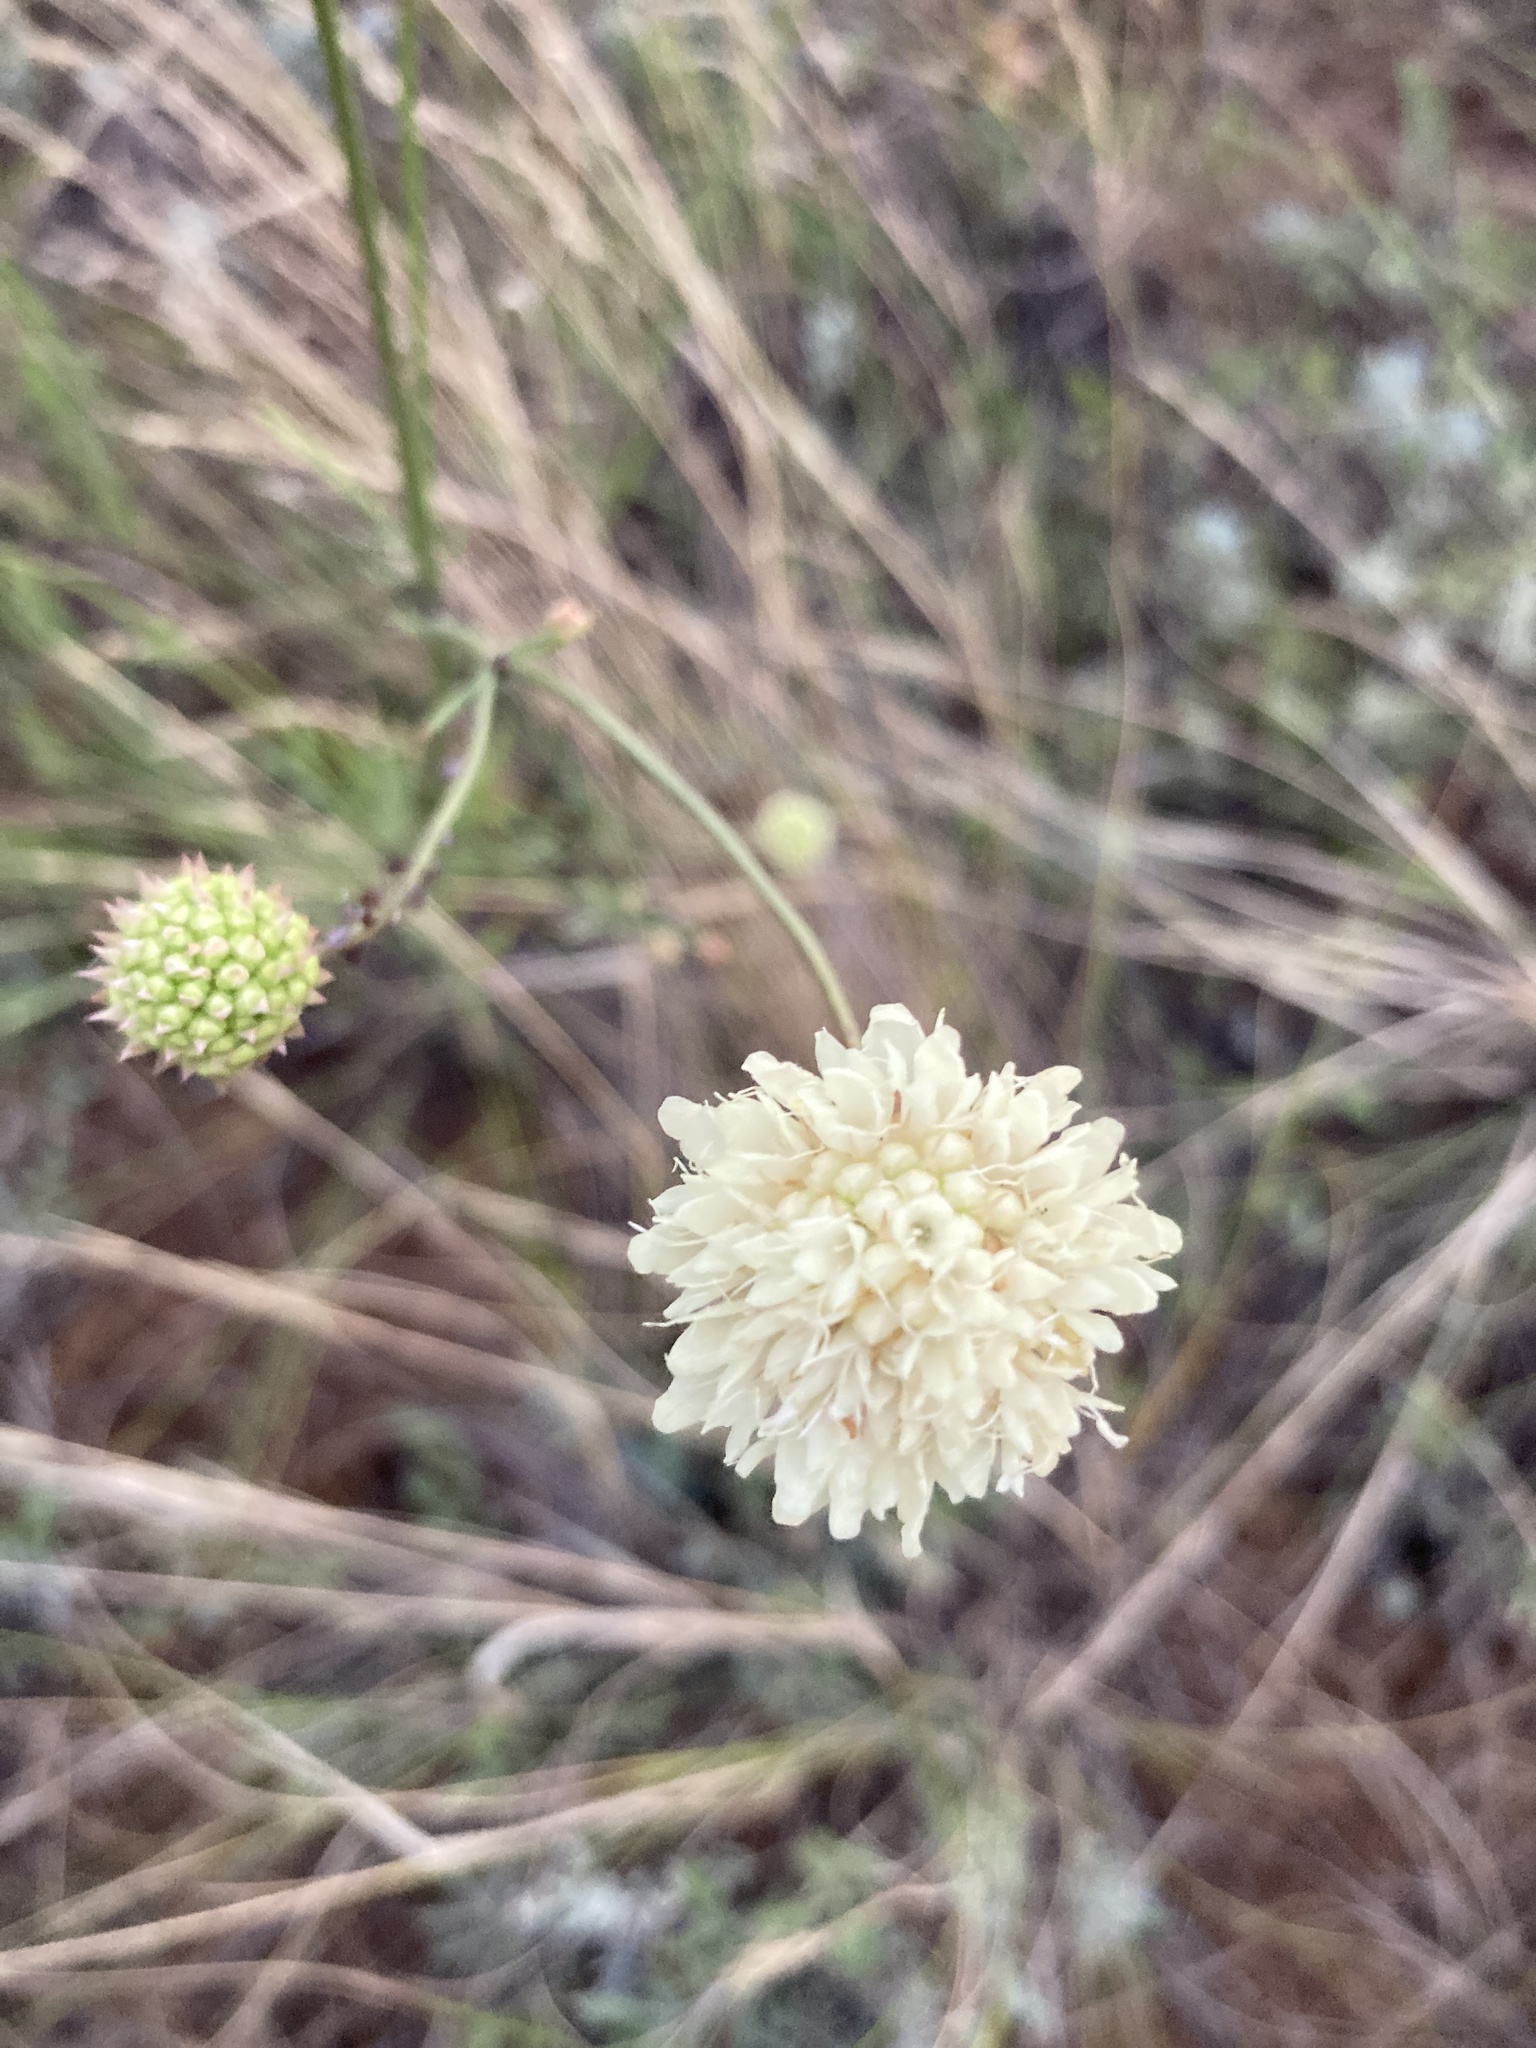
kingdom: Plantae
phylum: Tracheophyta
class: Magnoliopsida
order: Dipsacales
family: Caprifoliaceae
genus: Scabiosa
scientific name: Scabiosa ochroleuca
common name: Cream pincushions
